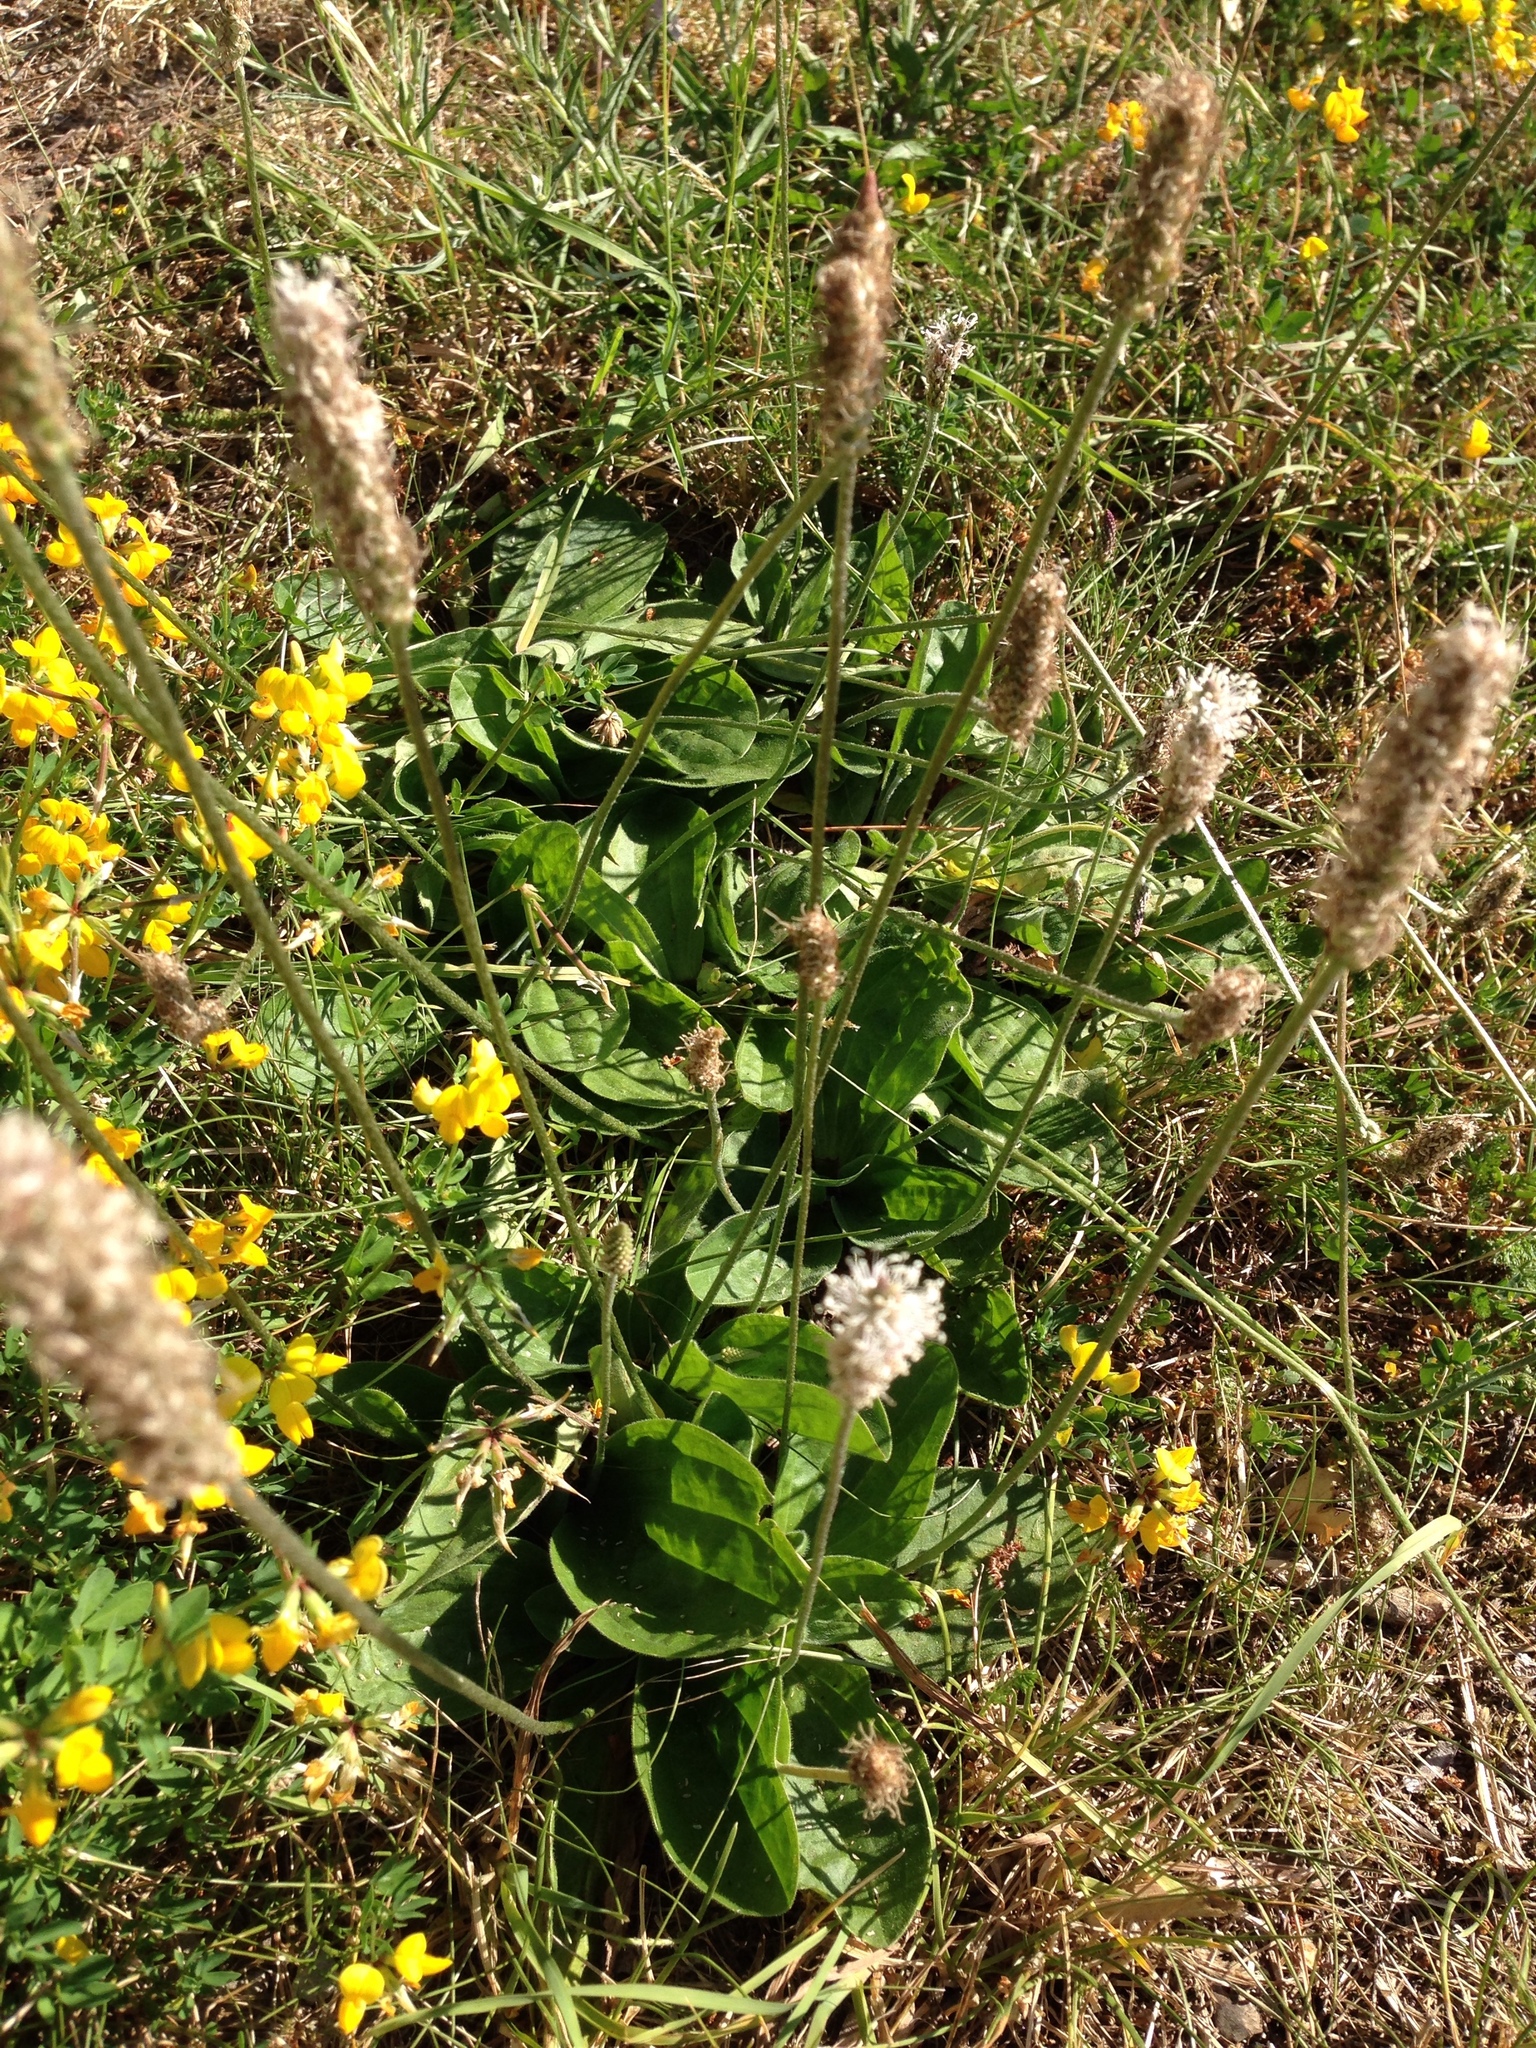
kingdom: Plantae
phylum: Tracheophyta
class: Magnoliopsida
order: Lamiales
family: Plantaginaceae
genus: Plantago
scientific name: Plantago media
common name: Hoary plantain
